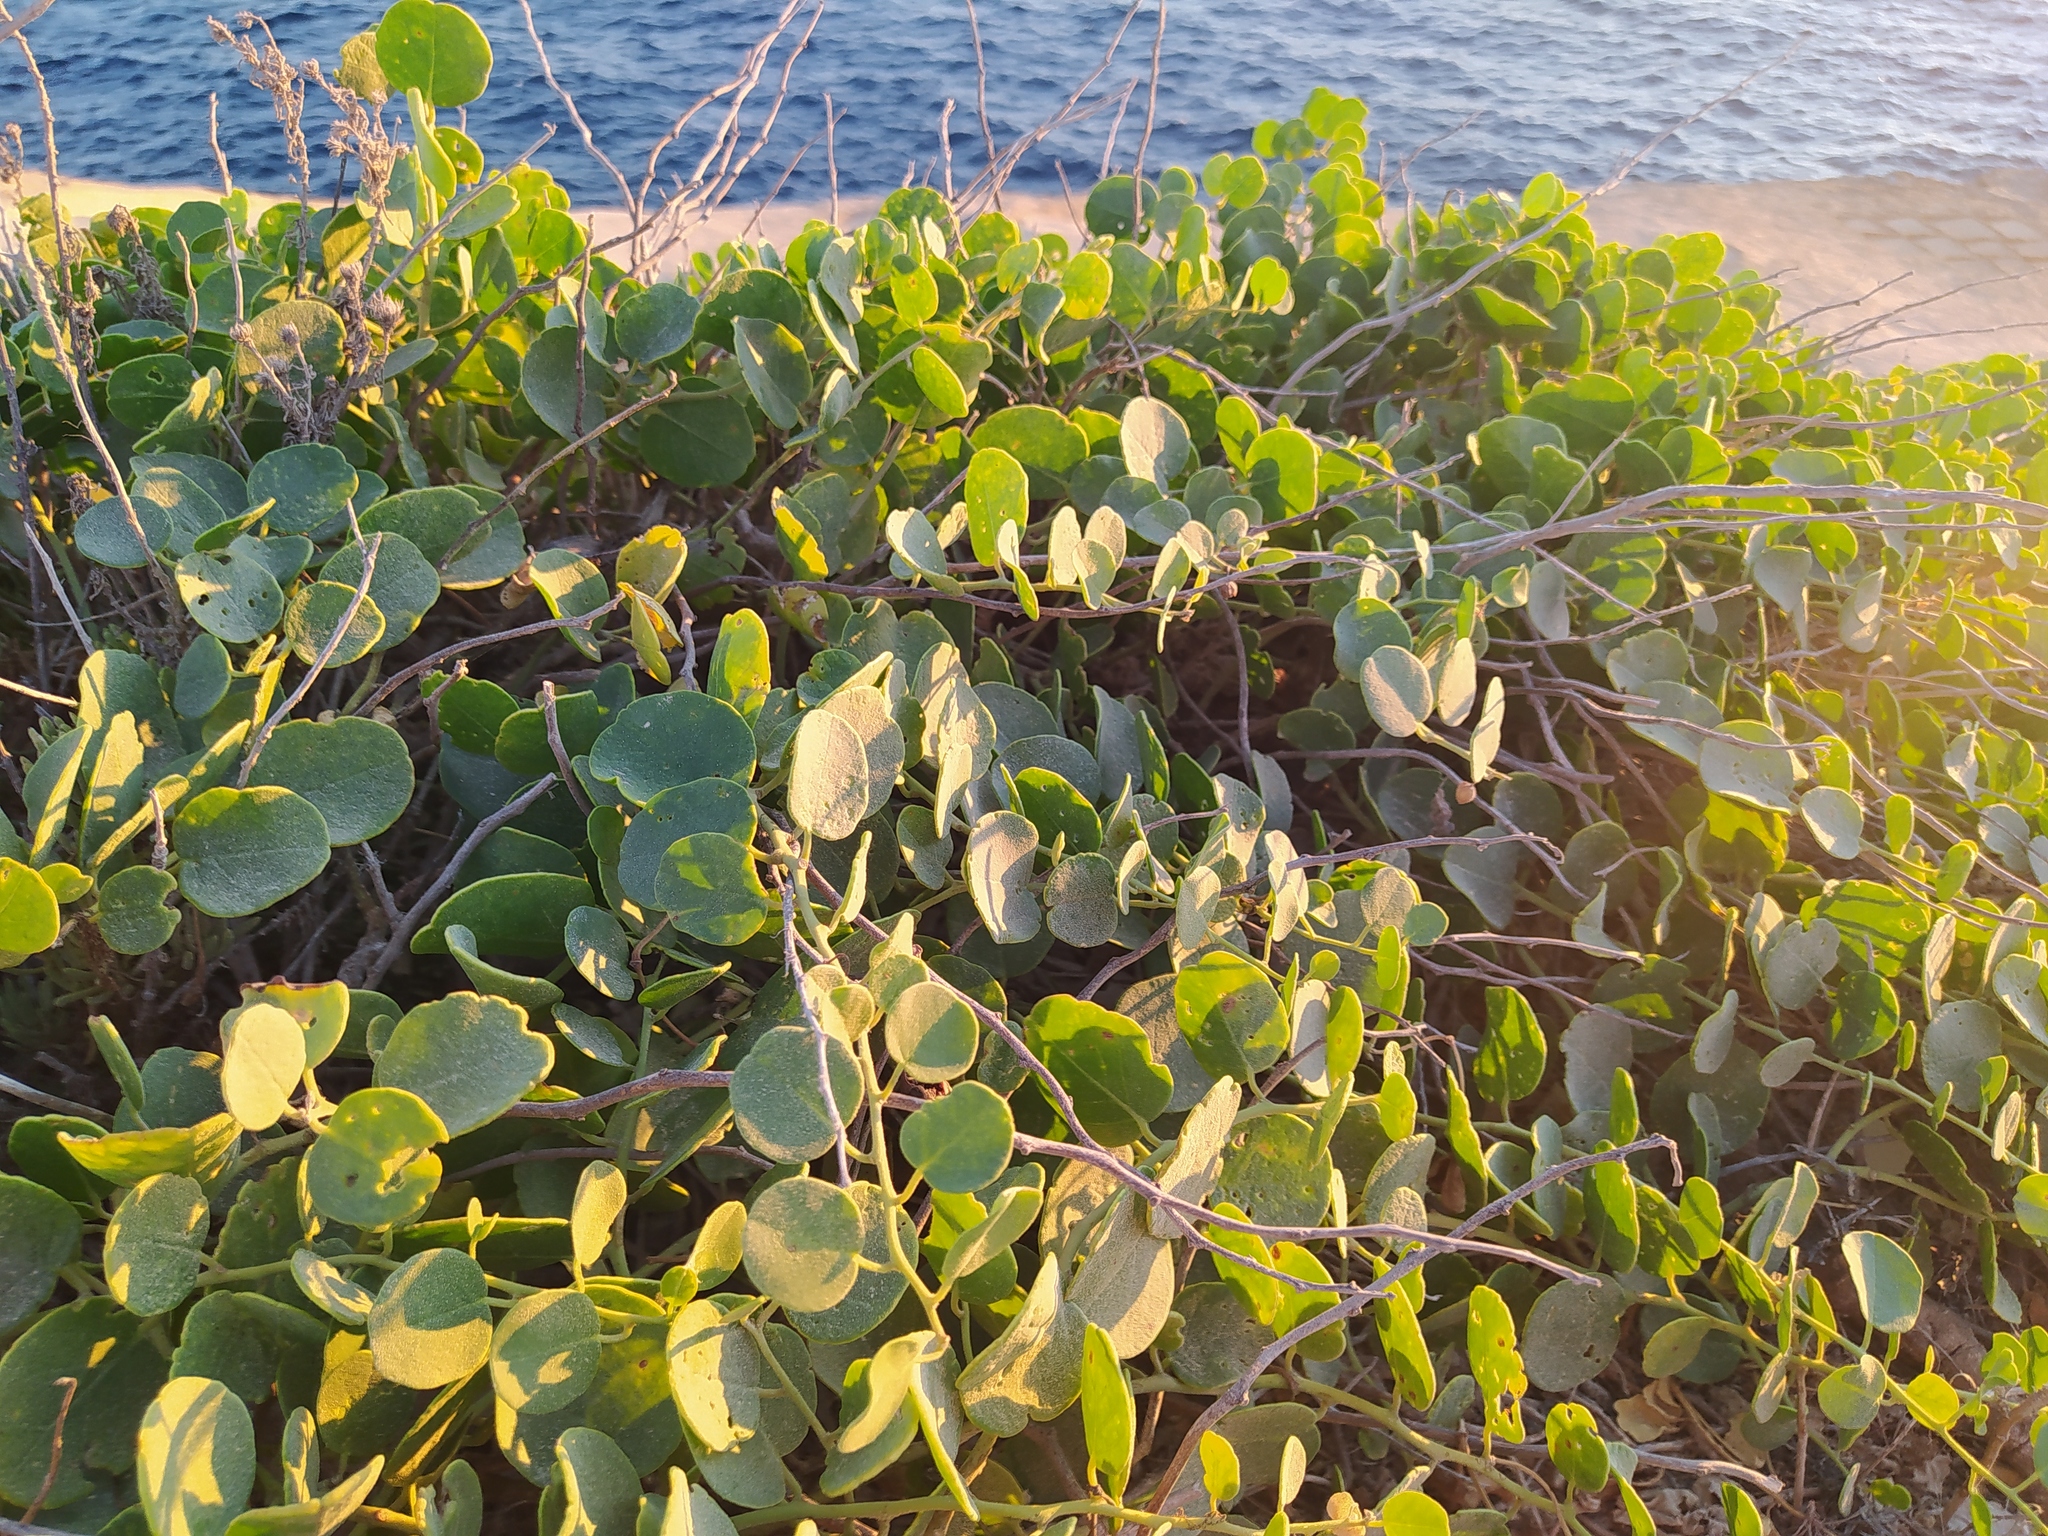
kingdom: Plantae
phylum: Tracheophyta
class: Magnoliopsida
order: Brassicales
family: Capparaceae
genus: Capparis
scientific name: Capparis orientalis
